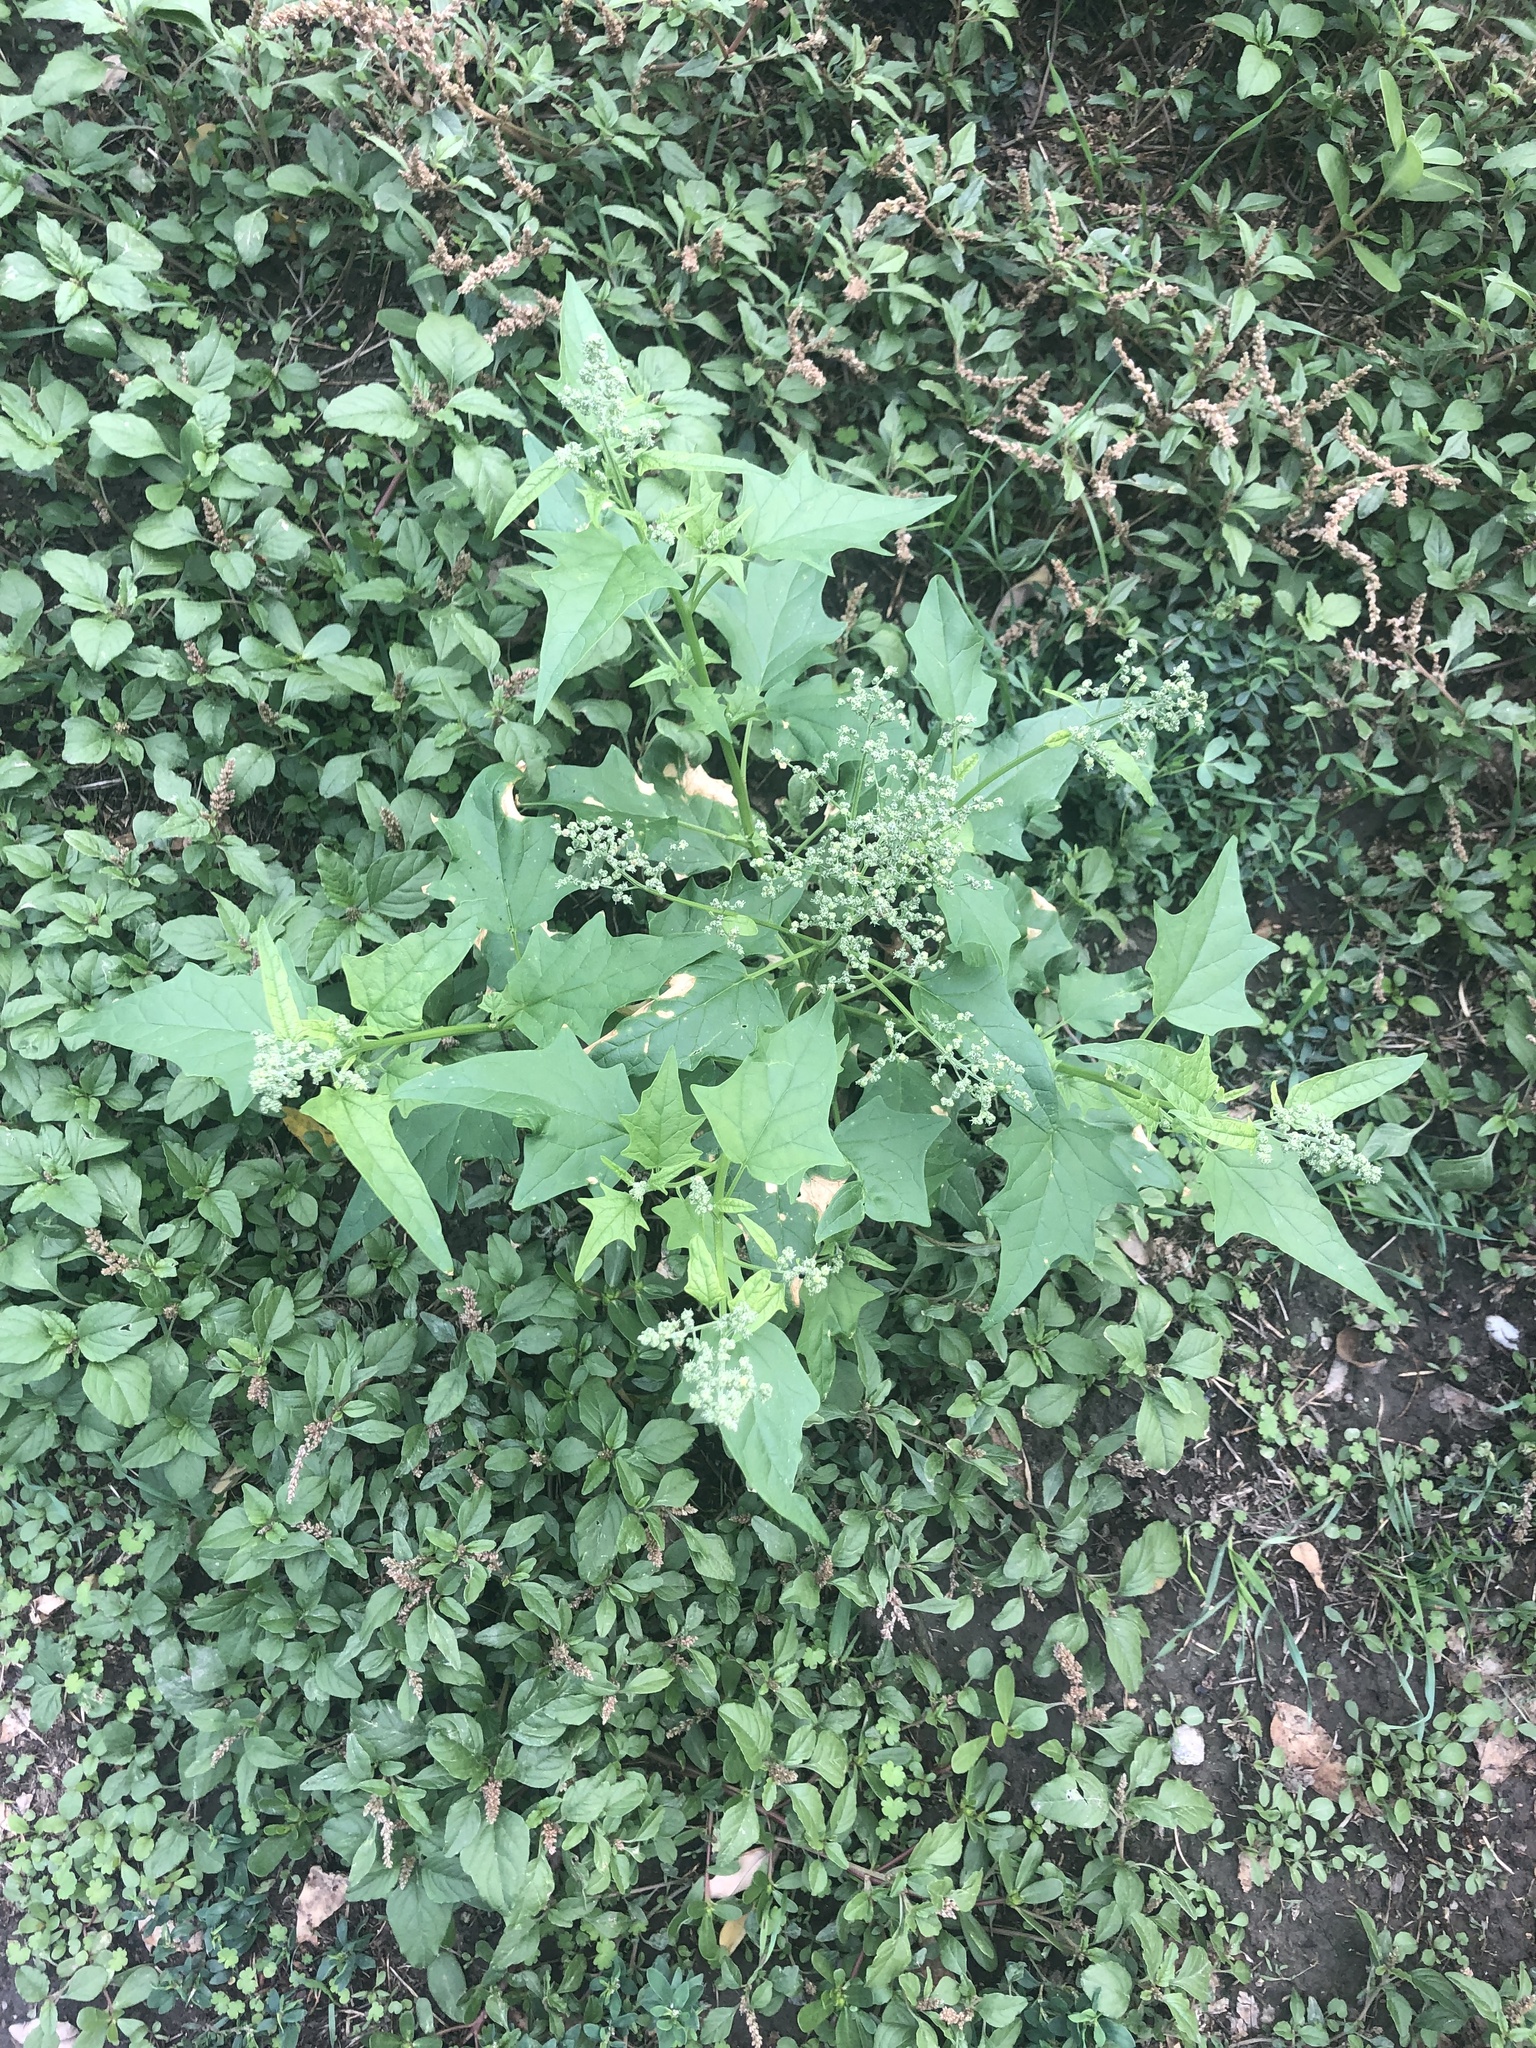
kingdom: Plantae
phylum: Tracheophyta
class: Magnoliopsida
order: Caryophyllales
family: Amaranthaceae
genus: Chenopodiastrum
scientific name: Chenopodiastrum hybridum
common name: Mapleleaf goosefoot
